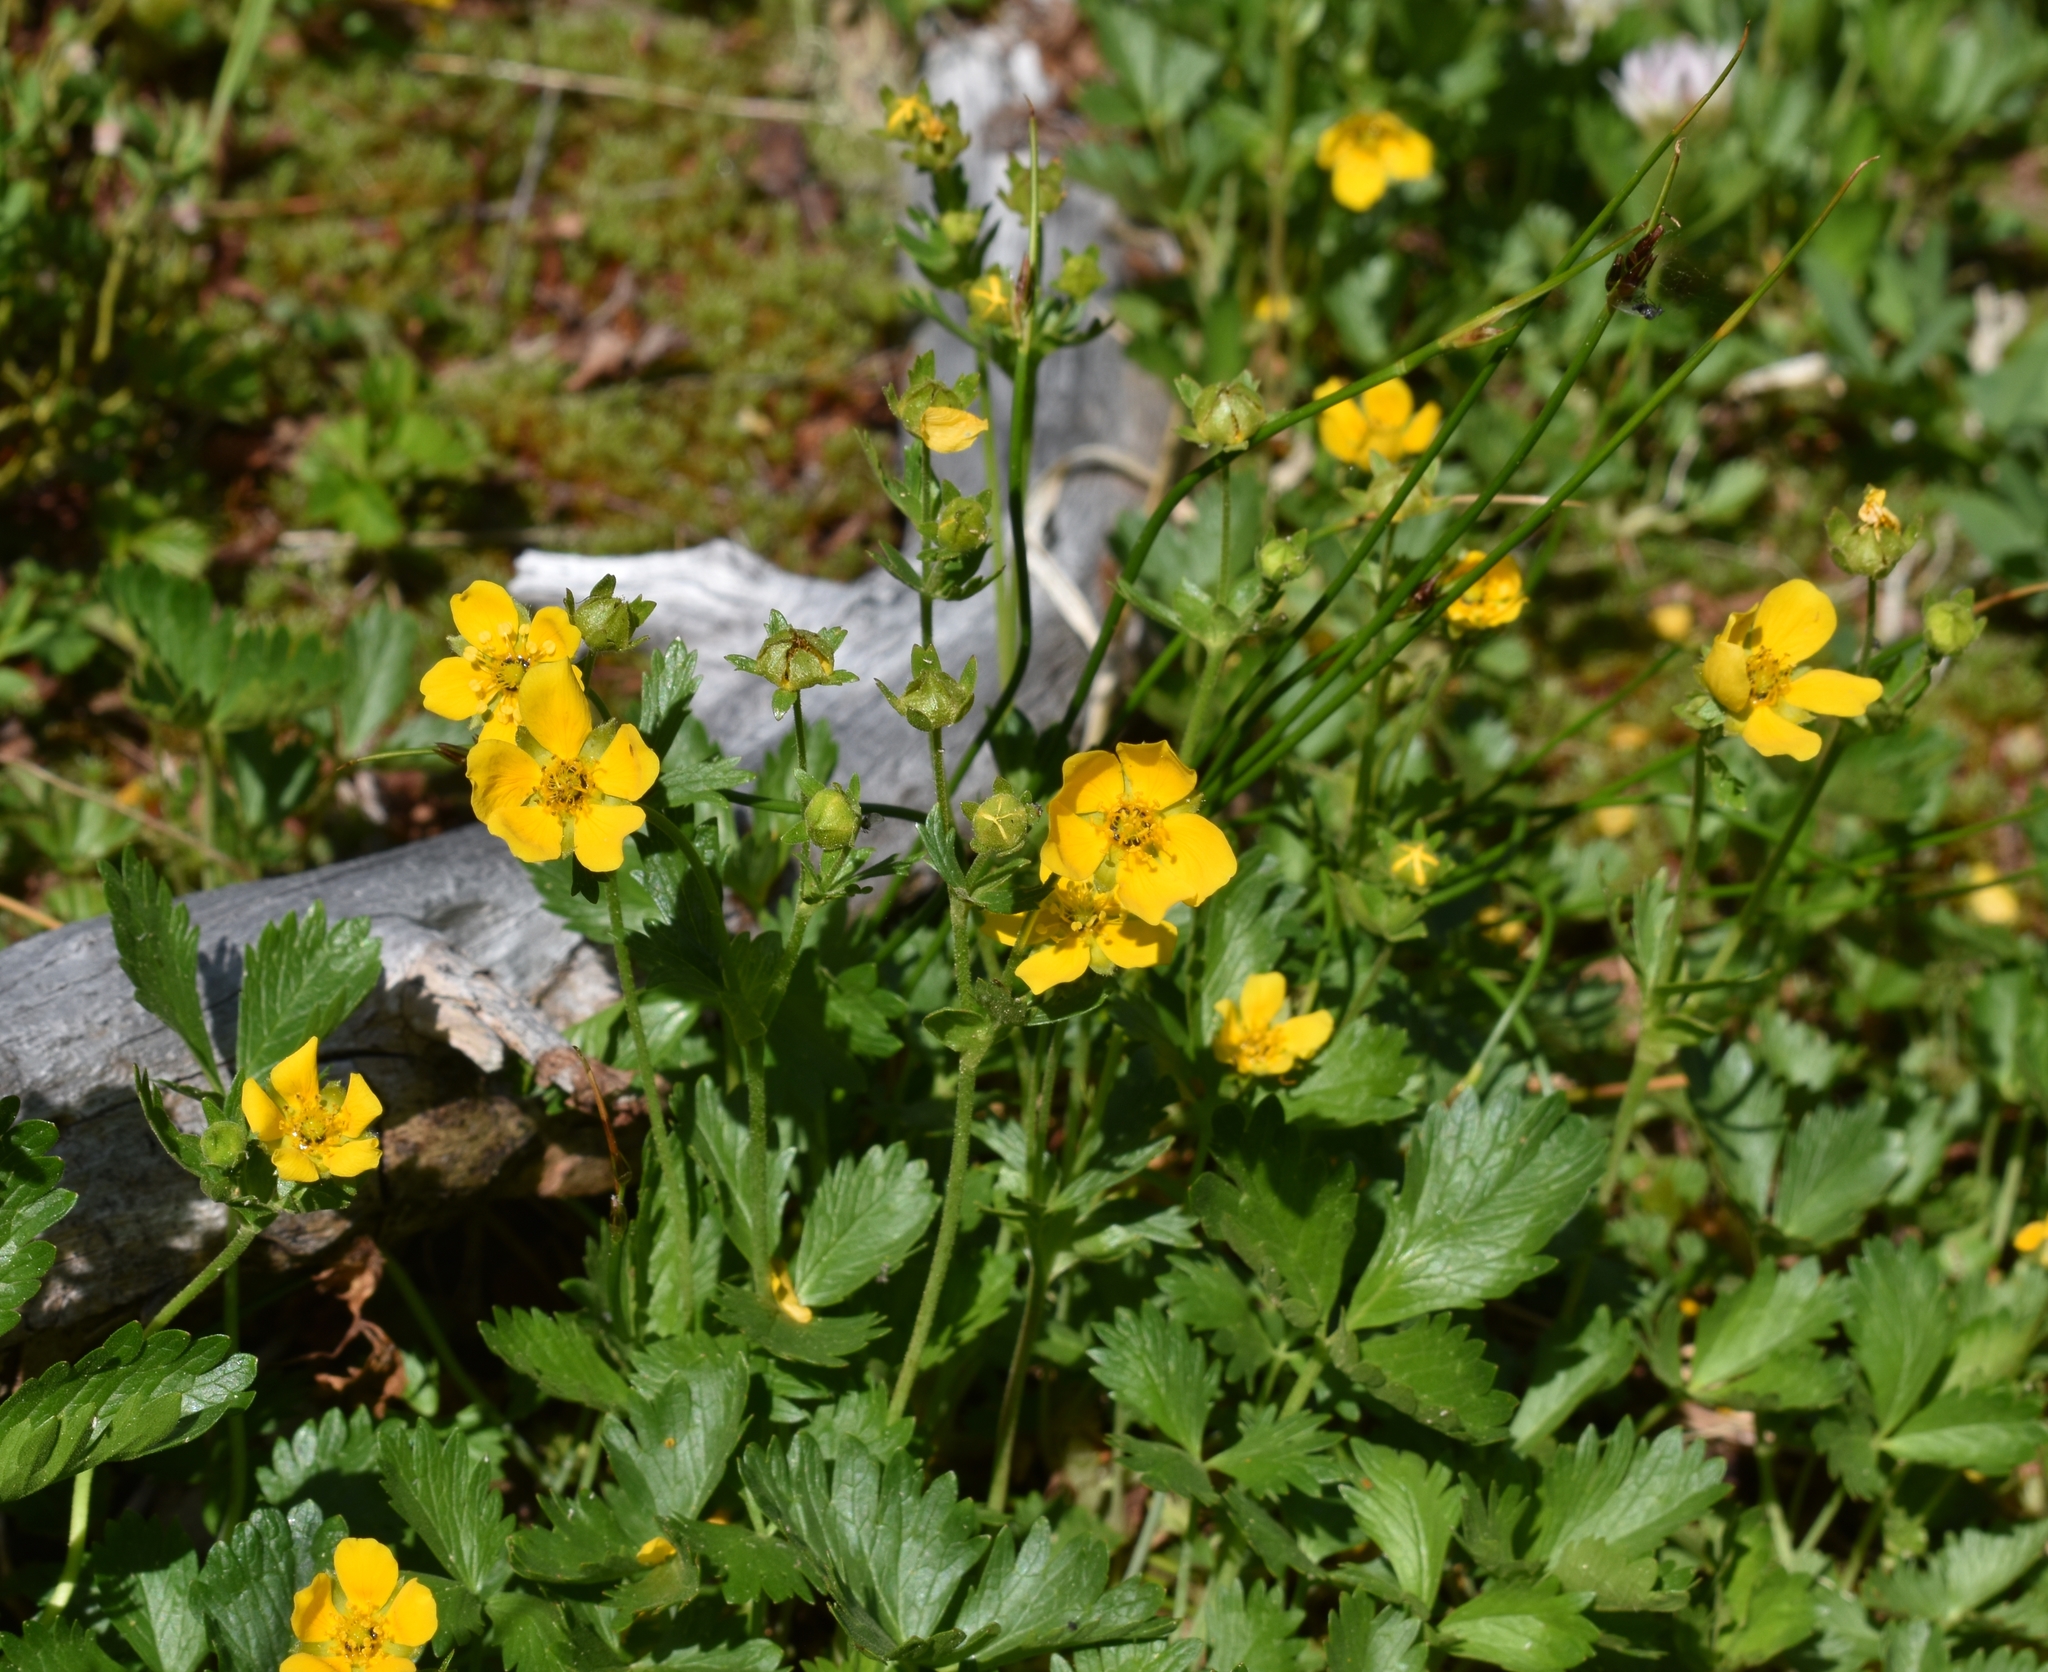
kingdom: Plantae
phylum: Tracheophyta
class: Magnoliopsida
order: Rosales
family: Rosaceae
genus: Potentilla
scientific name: Potentilla drummondii
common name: Drummond's cinquefoil
